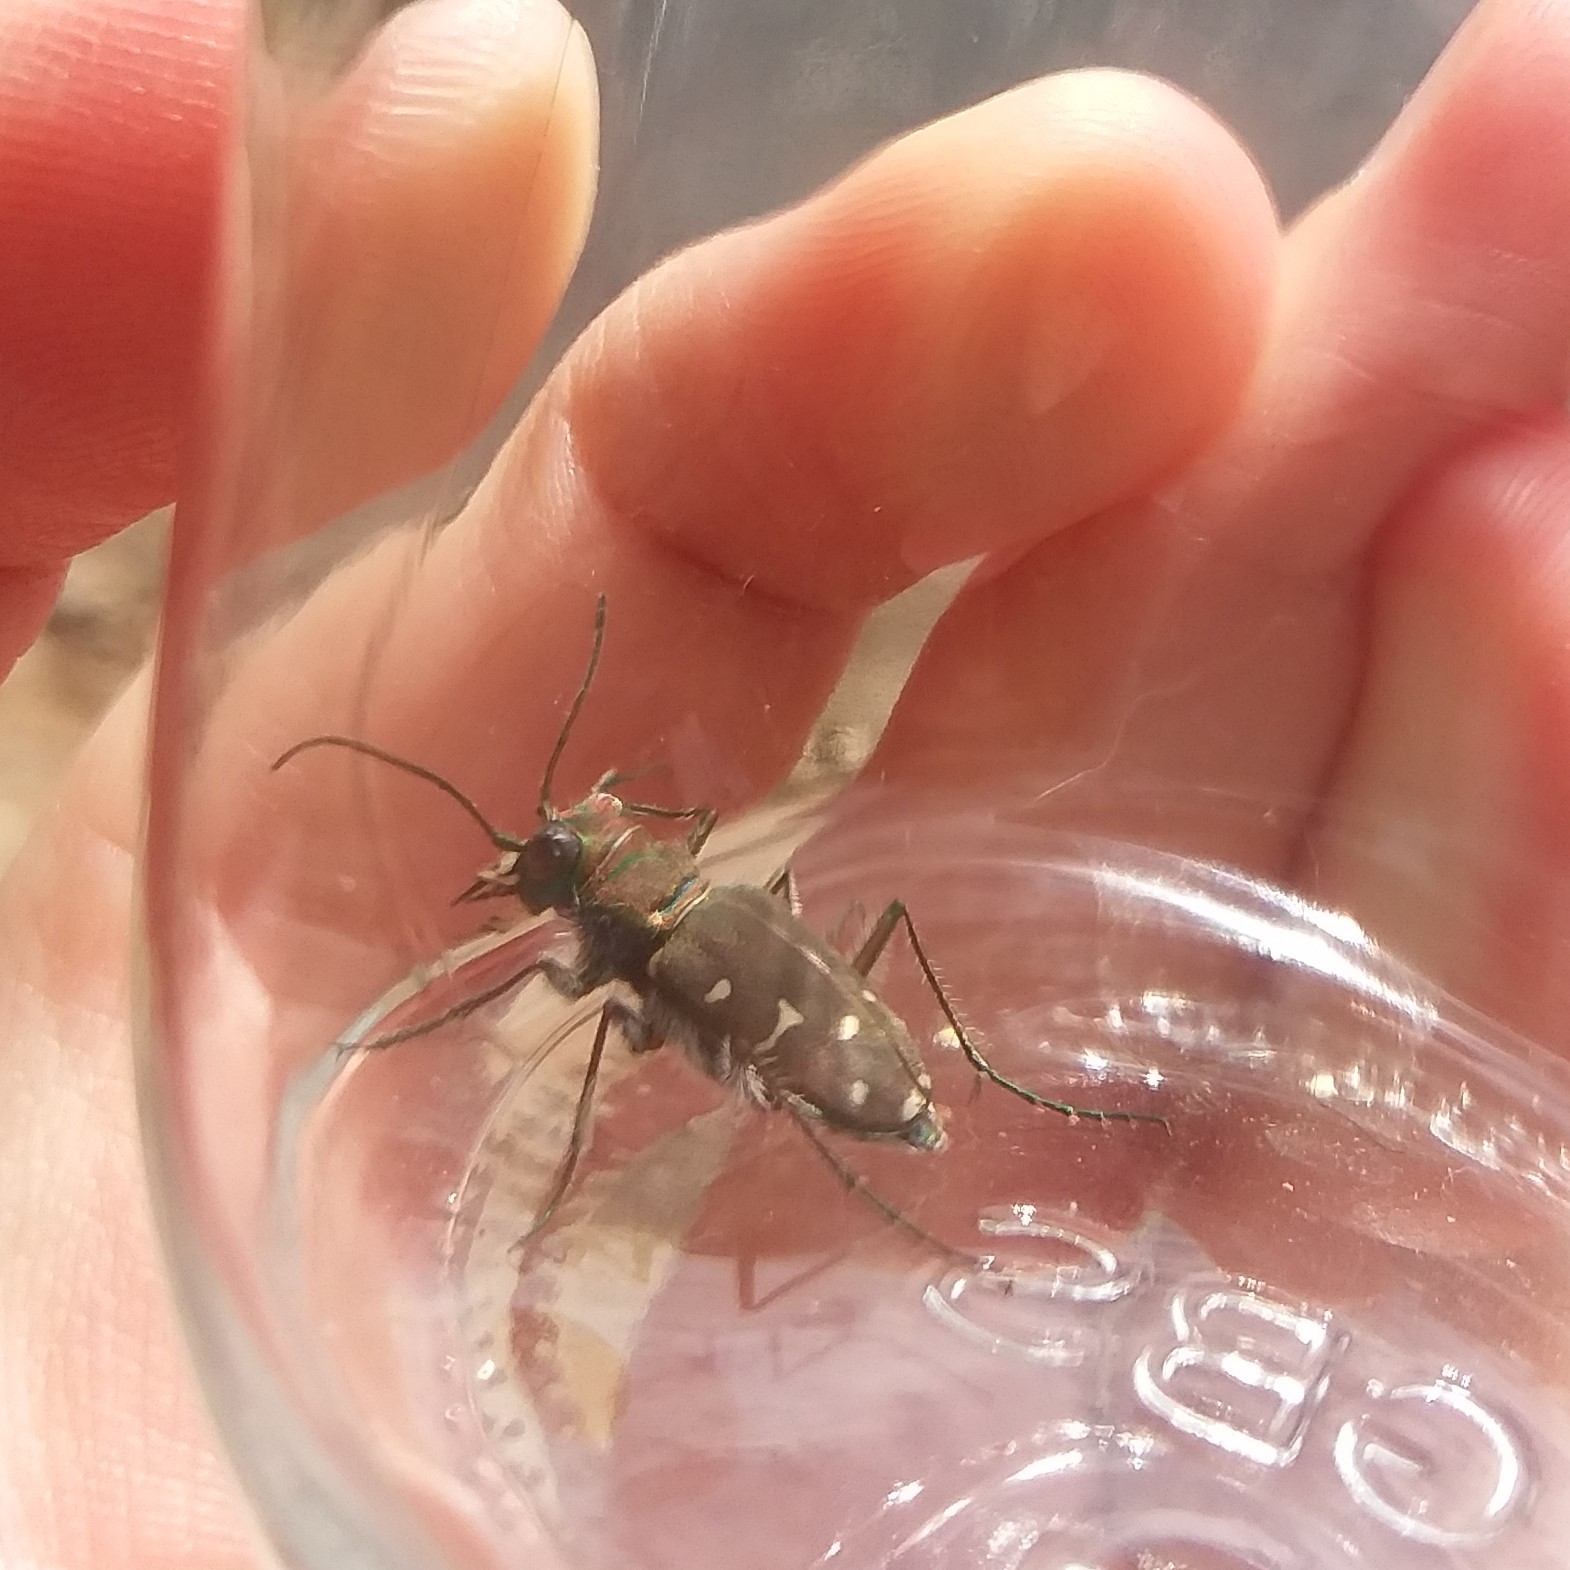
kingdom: Animalia
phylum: Arthropoda
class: Insecta
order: Coleoptera
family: Carabidae
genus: Cicindela
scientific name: Cicindela oregona
